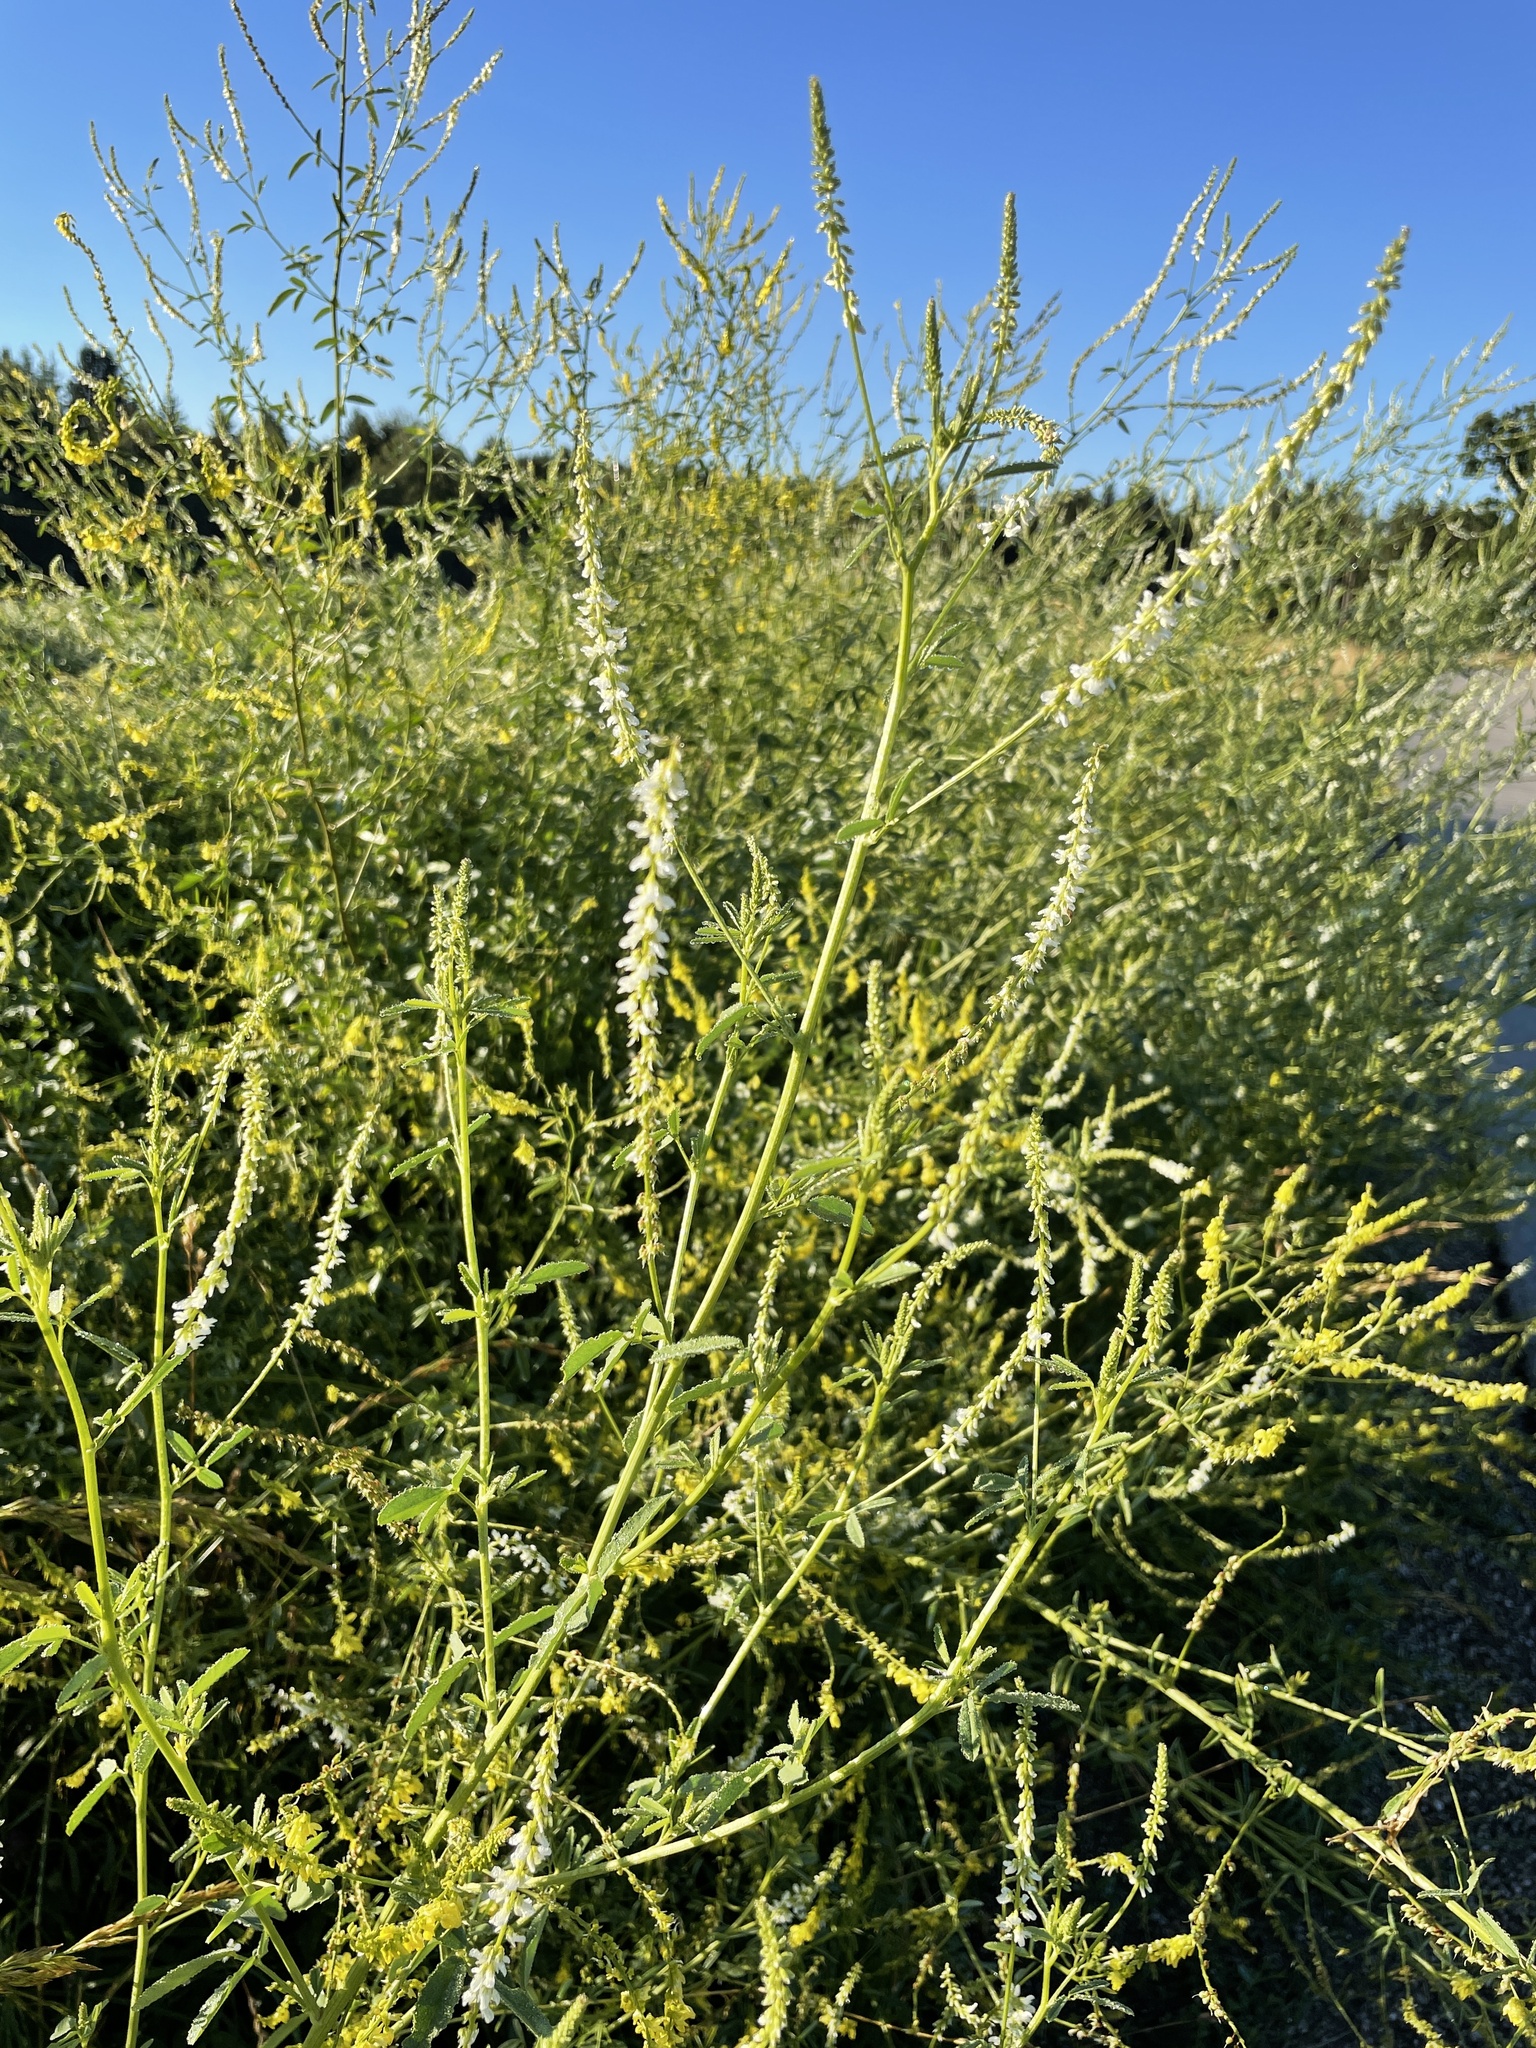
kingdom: Plantae
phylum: Tracheophyta
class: Magnoliopsida
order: Fabales
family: Fabaceae
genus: Melilotus
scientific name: Melilotus albus
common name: White melilot
